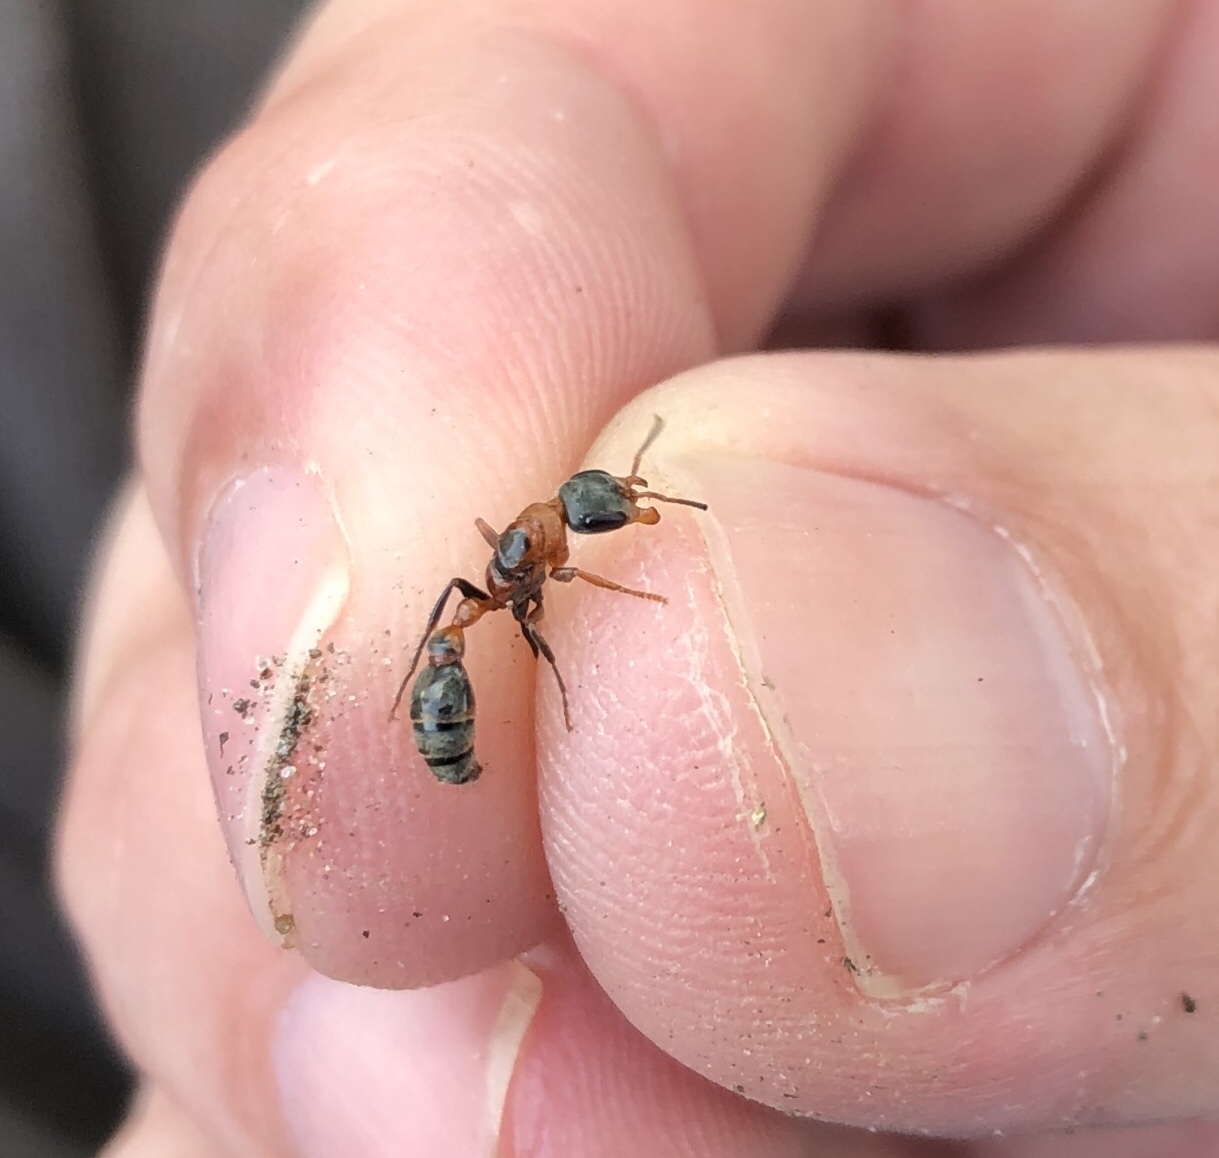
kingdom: Animalia
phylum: Arthropoda
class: Insecta
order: Hymenoptera
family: Formicidae
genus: Pseudomyrmex
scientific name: Pseudomyrmex gracilis
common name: Graceful twig ant
